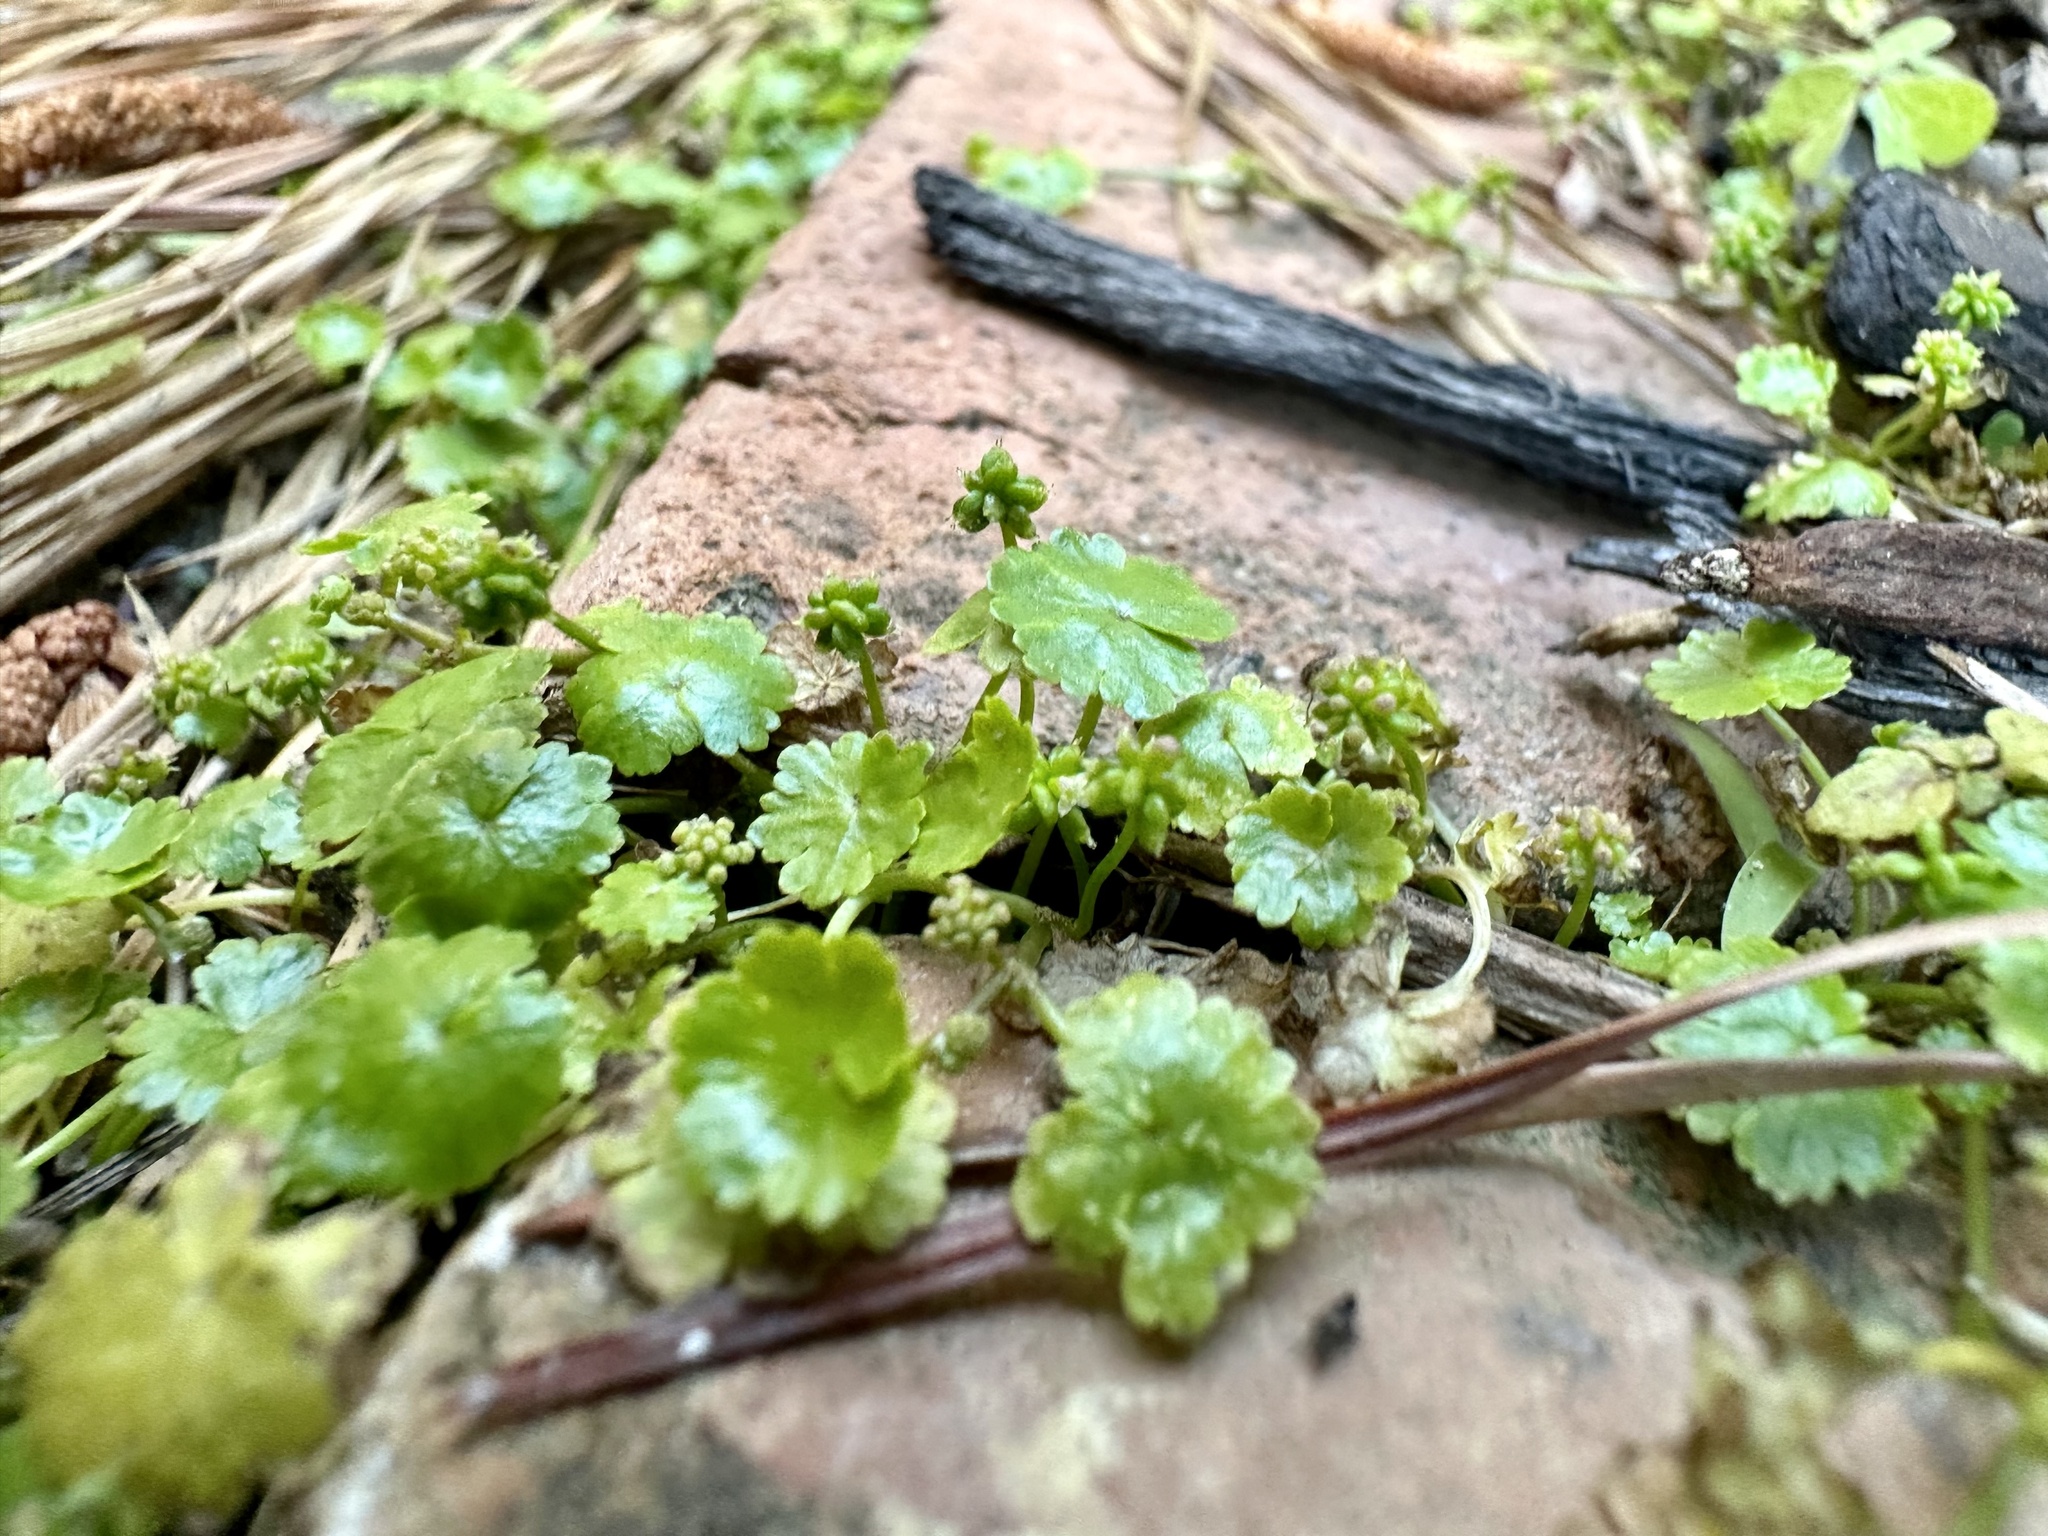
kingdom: Plantae
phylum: Tracheophyta
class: Magnoliopsida
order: Apiales
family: Araliaceae
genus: Hydrocotyle
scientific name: Hydrocotyle sibthorpioides
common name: Lawn marshpennywort
